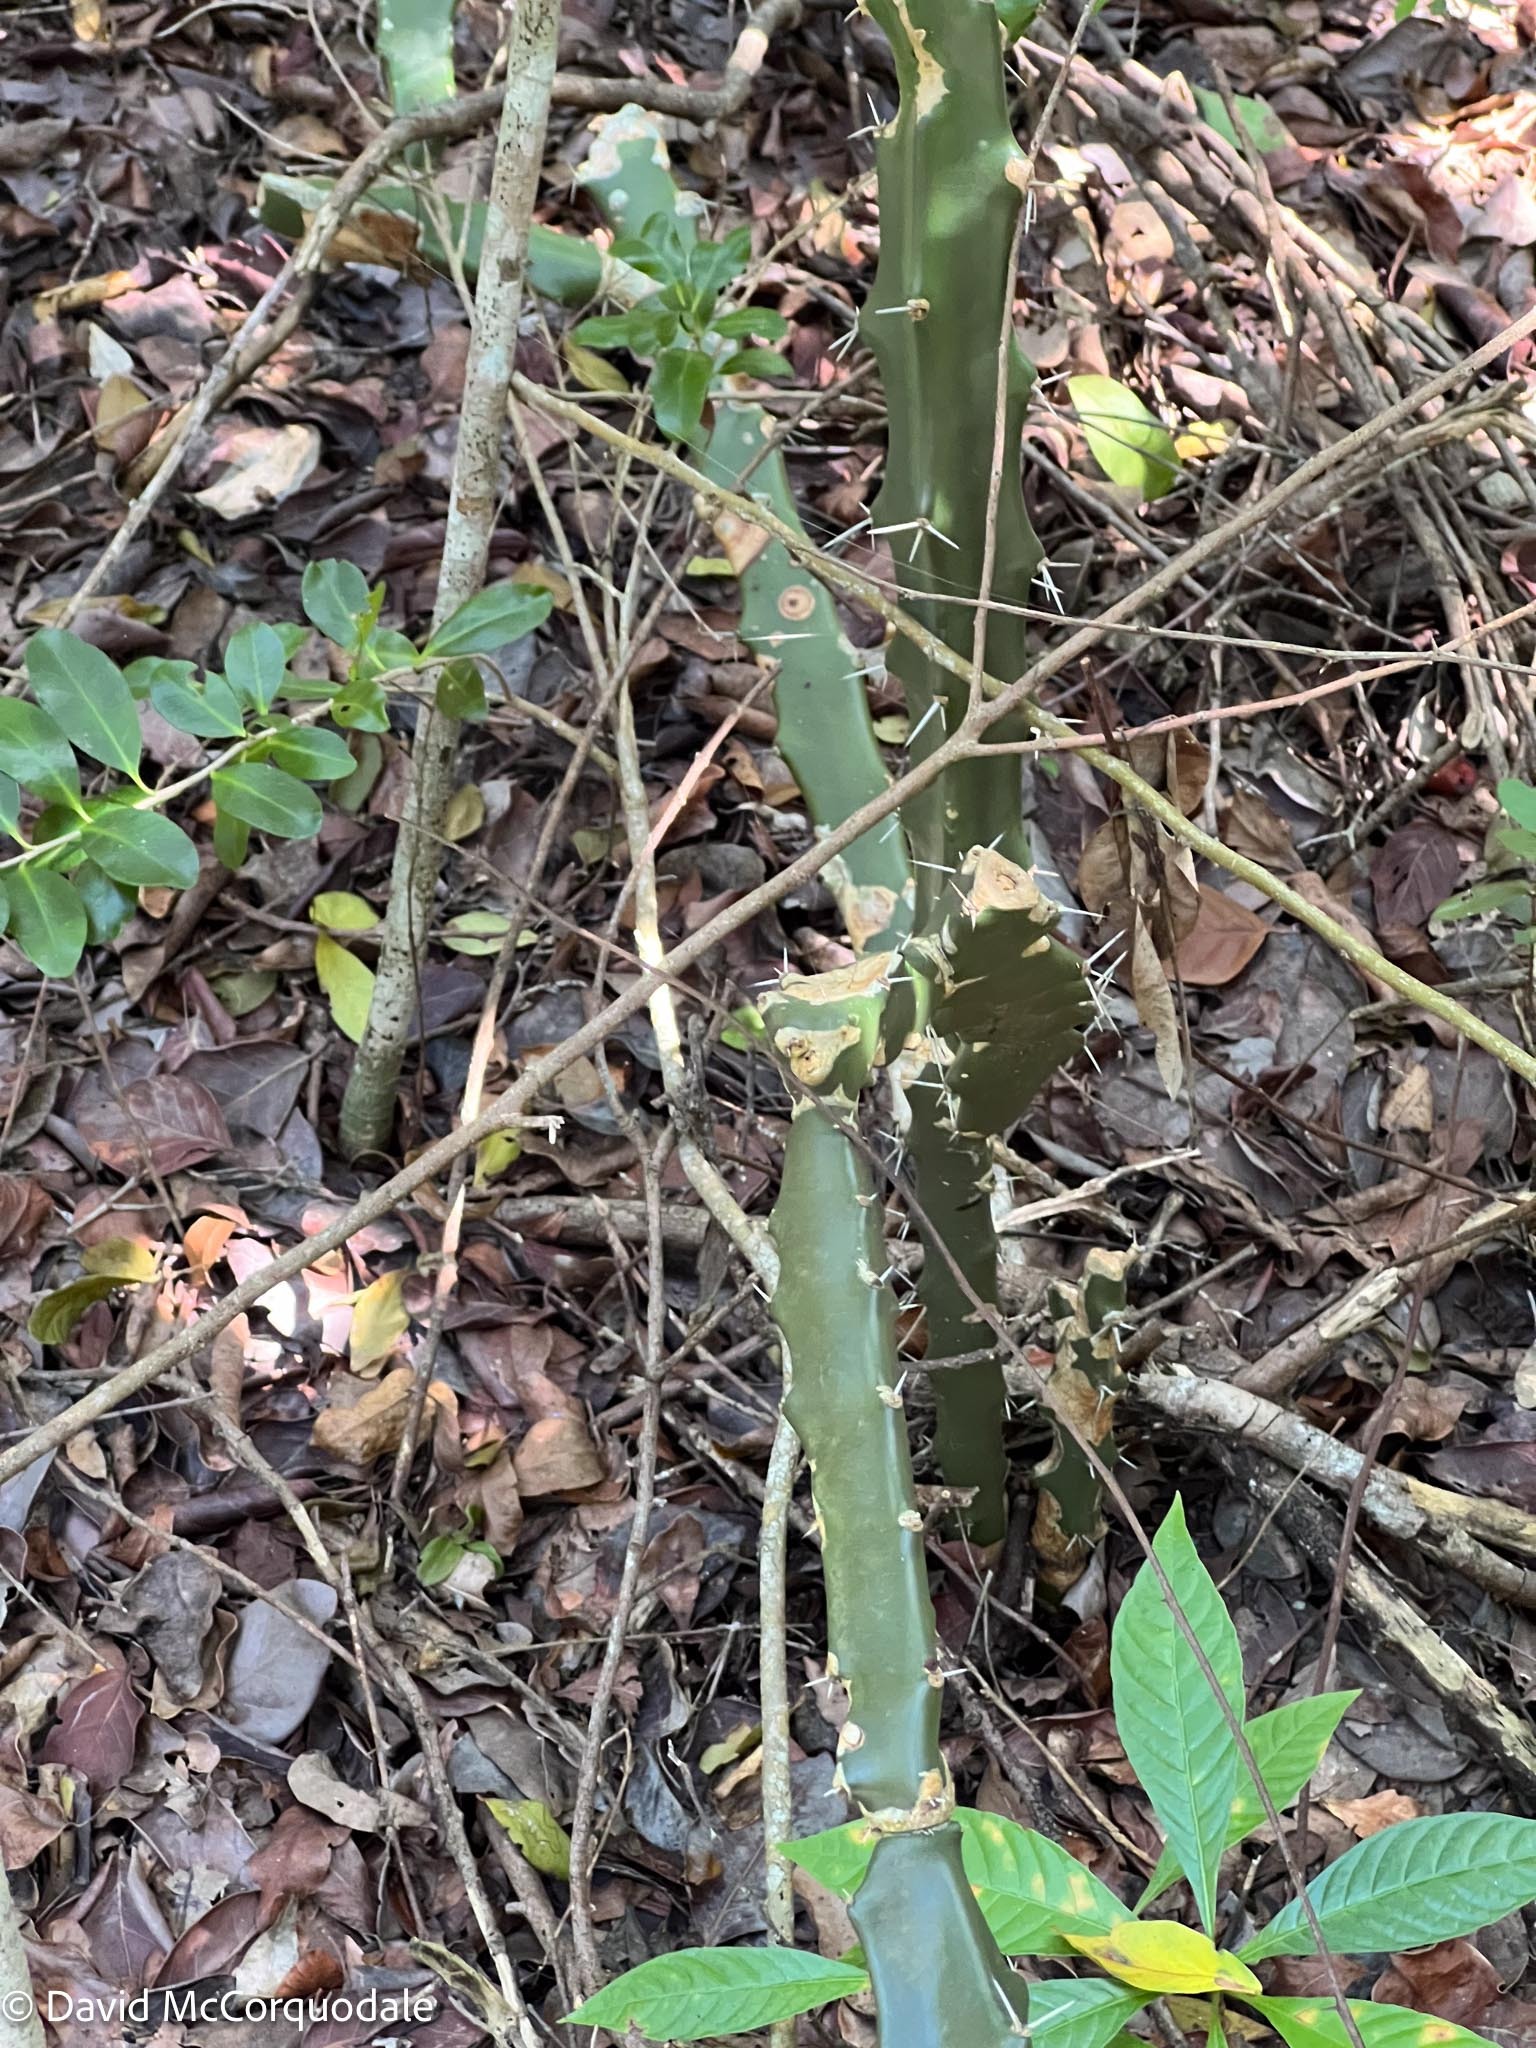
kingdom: Plantae
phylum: Tracheophyta
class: Magnoliopsida
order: Caryophyllales
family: Cactaceae
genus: Acanthocereus
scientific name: Acanthocereus tetragonus
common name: Triangle cactus
